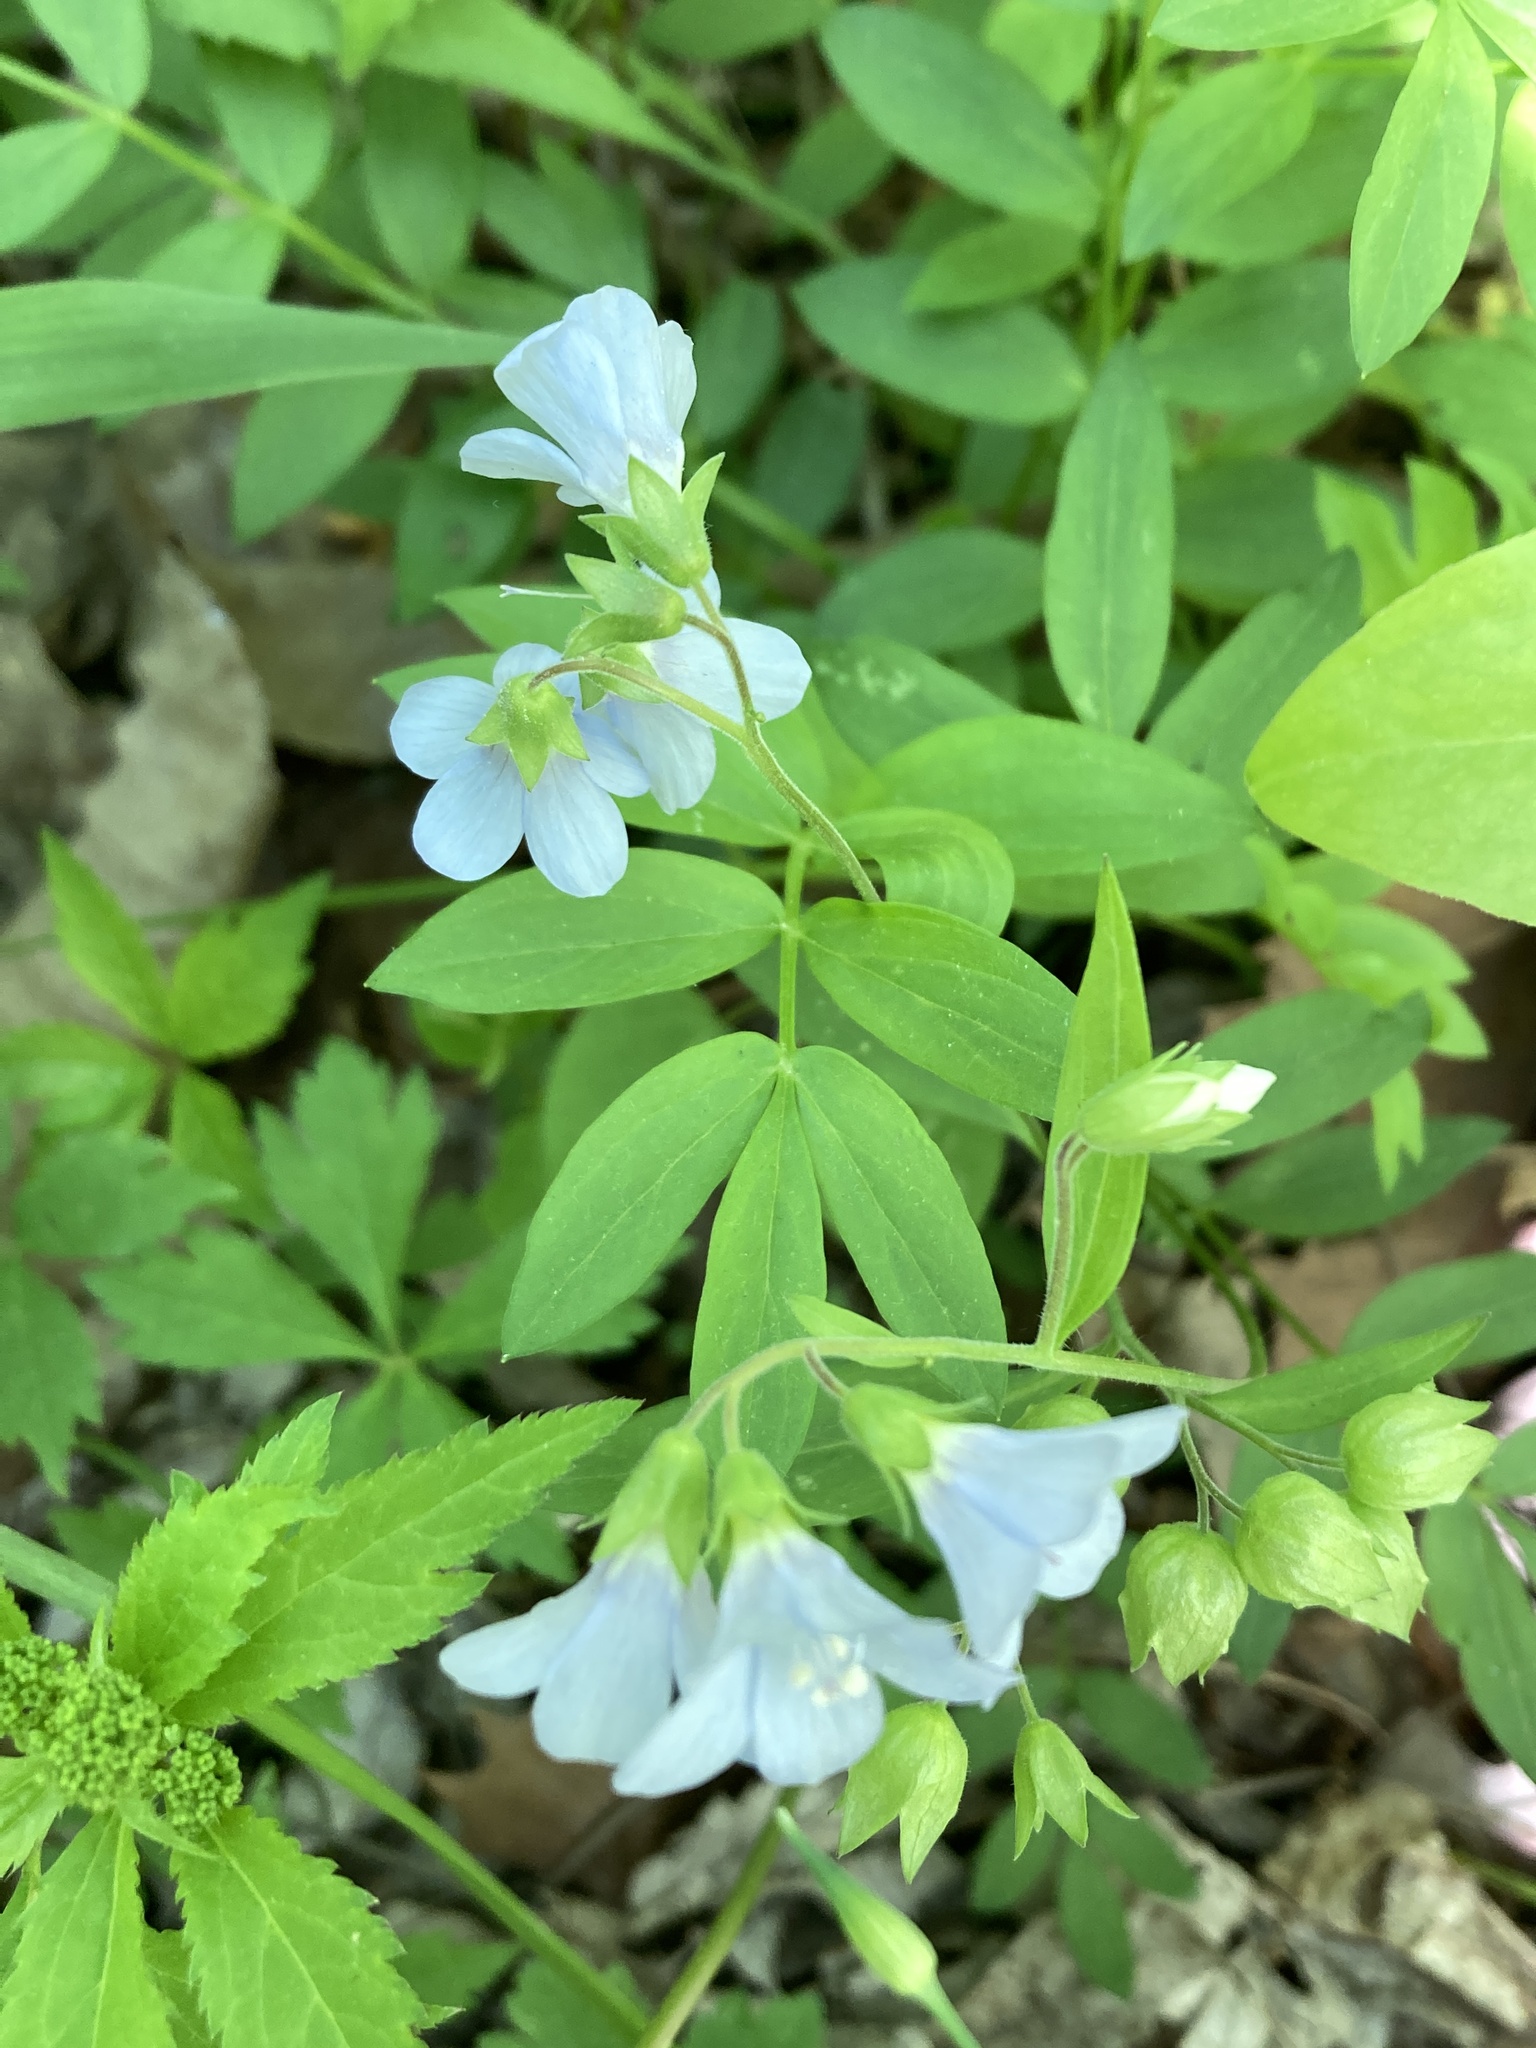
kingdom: Plantae
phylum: Tracheophyta
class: Magnoliopsida
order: Ericales
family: Polemoniaceae
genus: Polemonium
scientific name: Polemonium reptans
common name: Creeping jacob's-ladder
